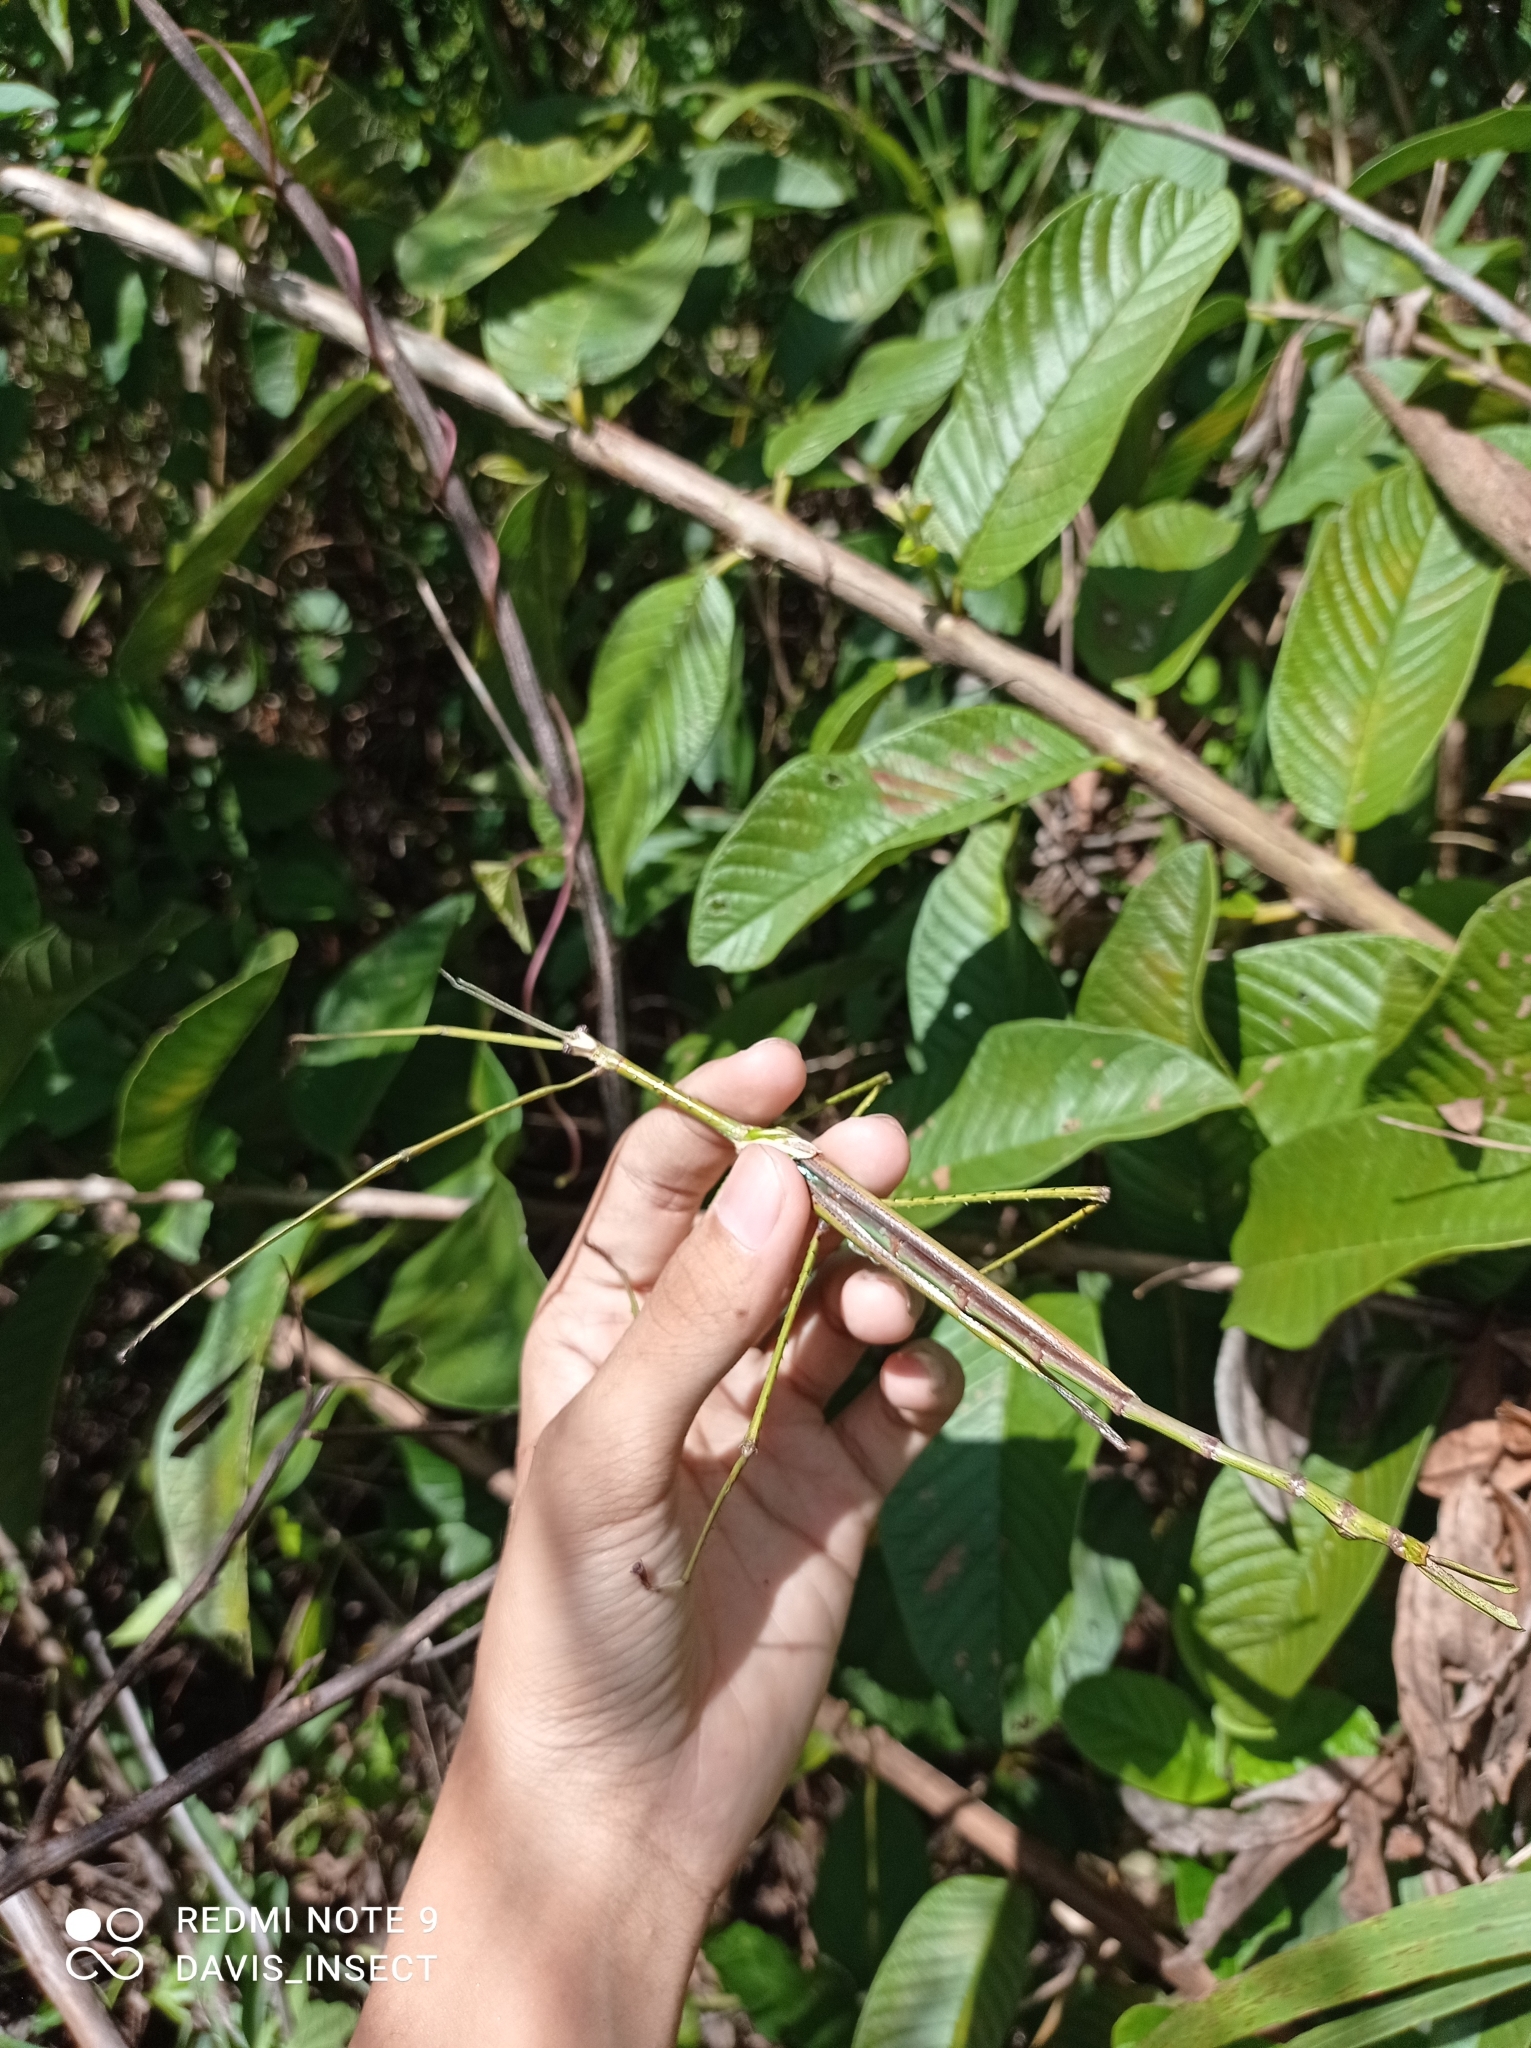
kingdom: Animalia
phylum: Arthropoda
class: Insecta
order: Phasmida
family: Phasmatidae
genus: Eurycnema
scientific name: Eurycnema versirubra
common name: Red-winged green giant stick-insect
